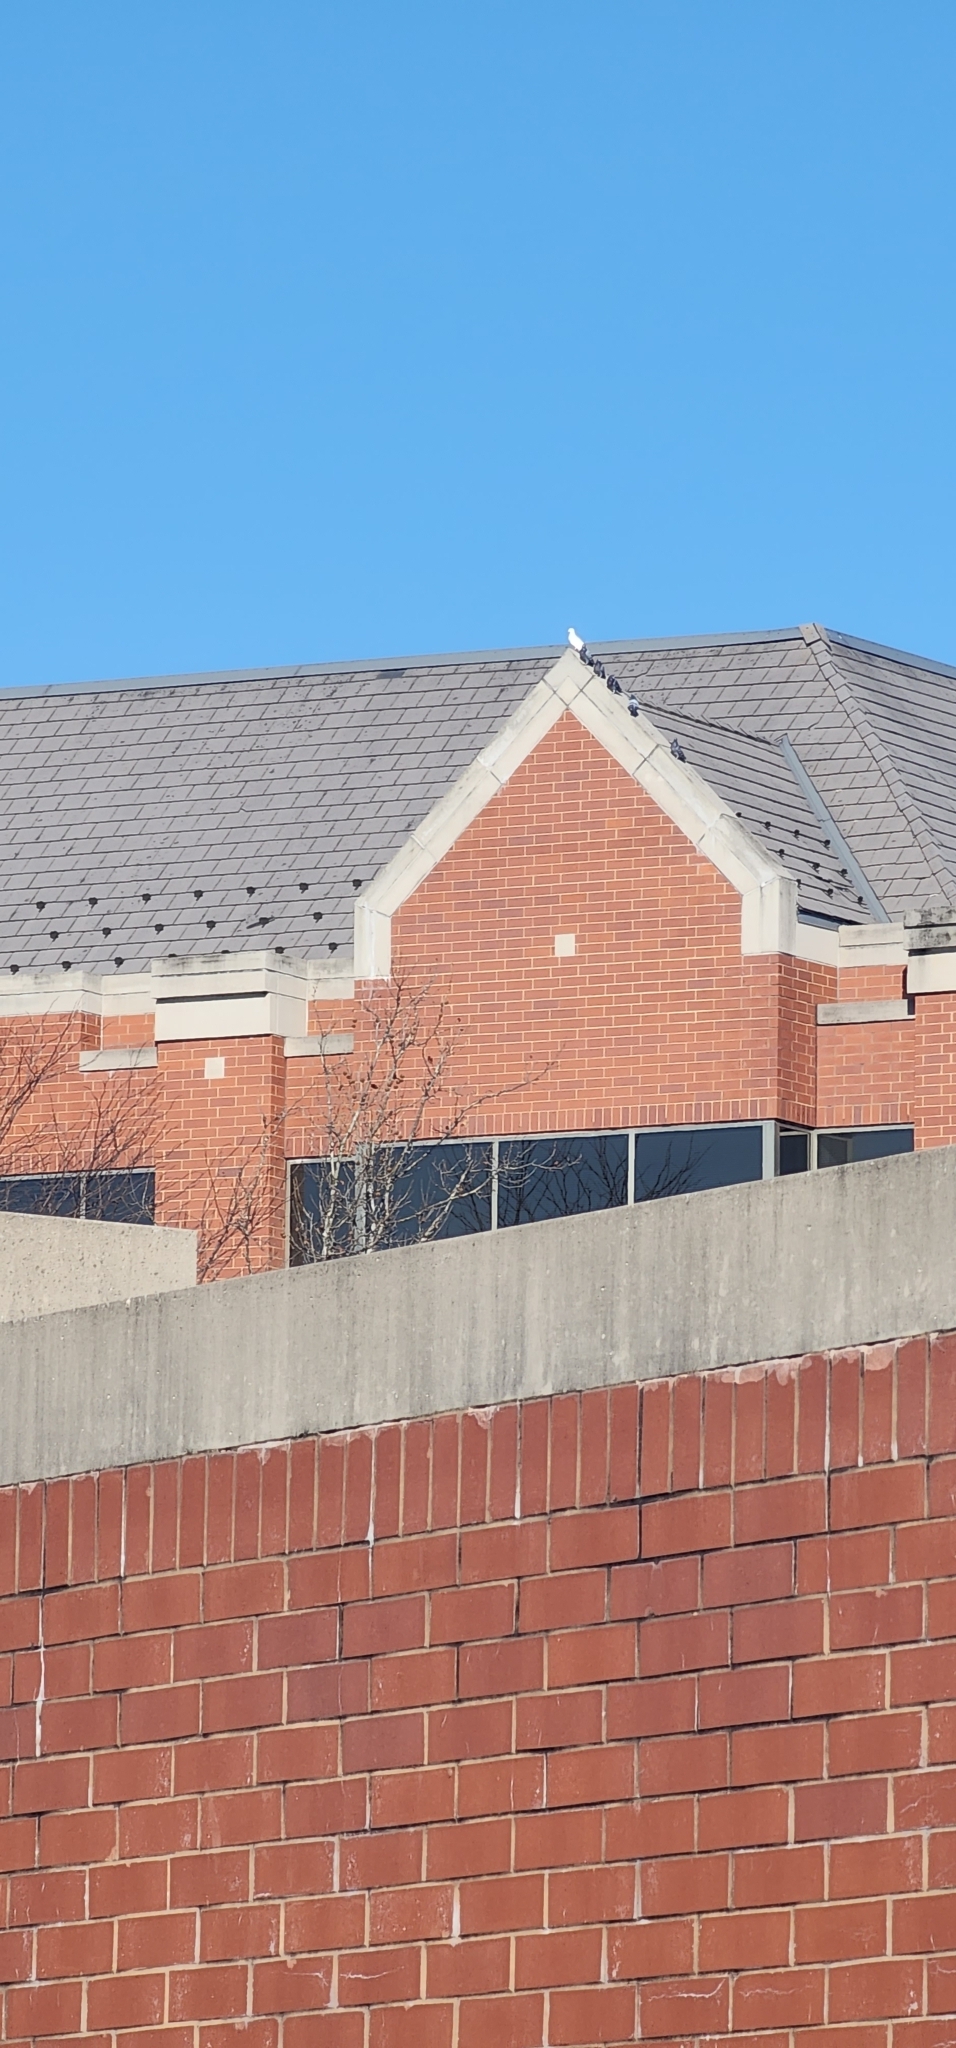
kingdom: Animalia
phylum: Chordata
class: Aves
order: Columbiformes
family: Columbidae
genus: Columba
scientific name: Columba livia
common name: Rock pigeon
